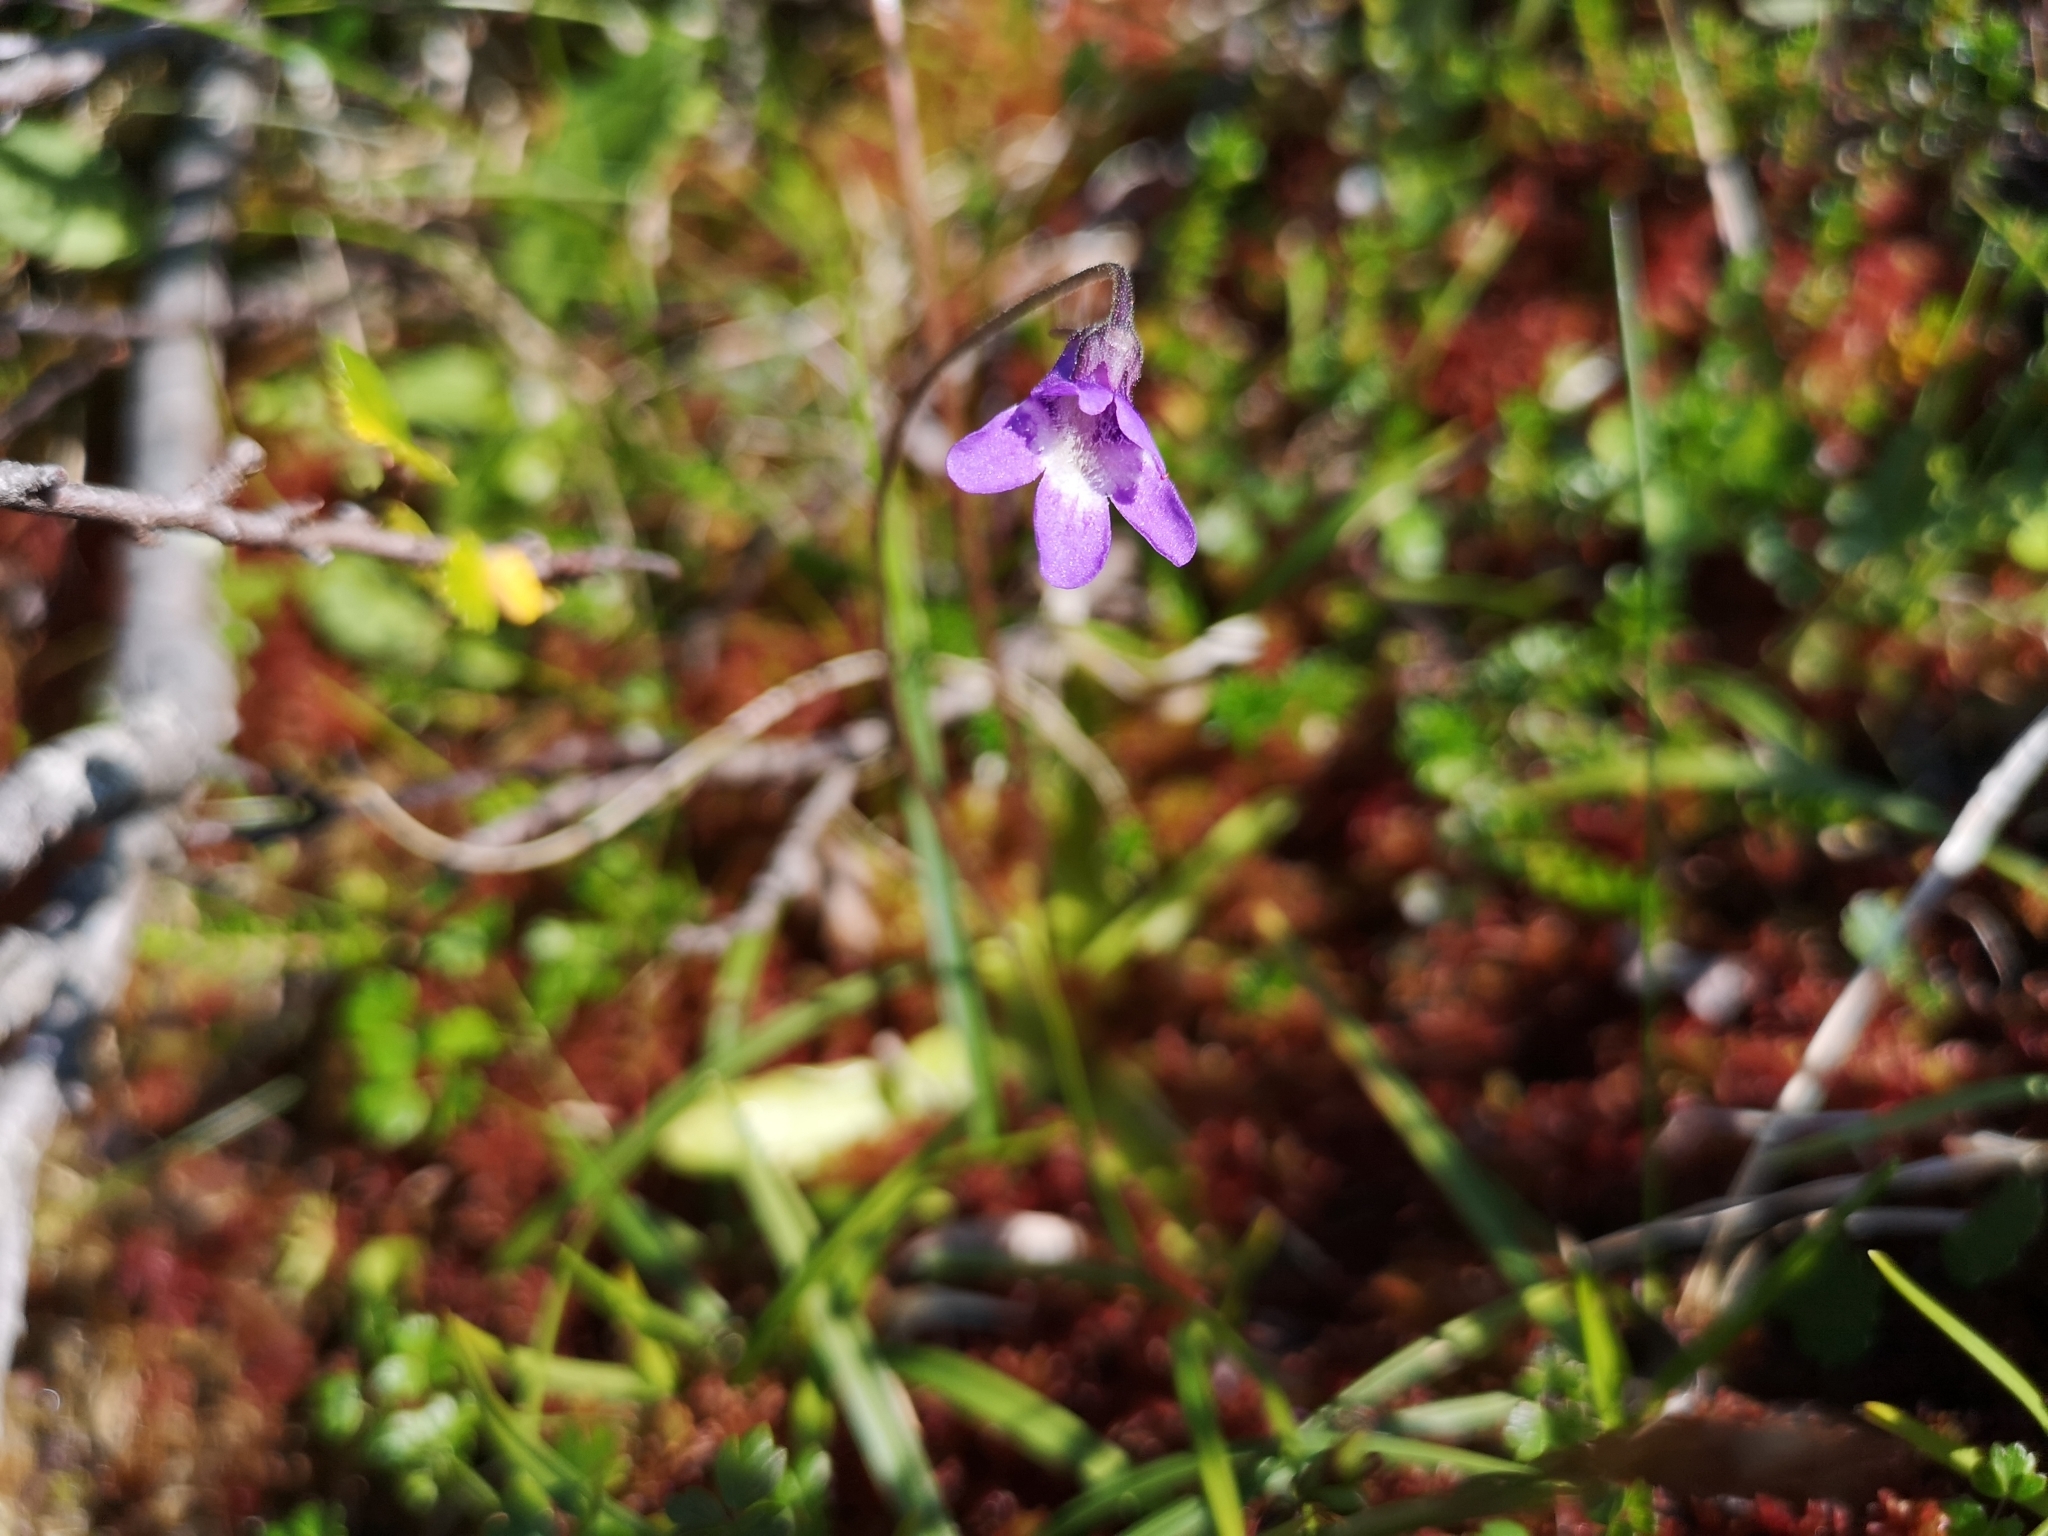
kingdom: Plantae
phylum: Tracheophyta
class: Magnoliopsida
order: Lamiales
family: Lentibulariaceae
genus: Pinguicula
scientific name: Pinguicula vulgaris
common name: Common butterwort
